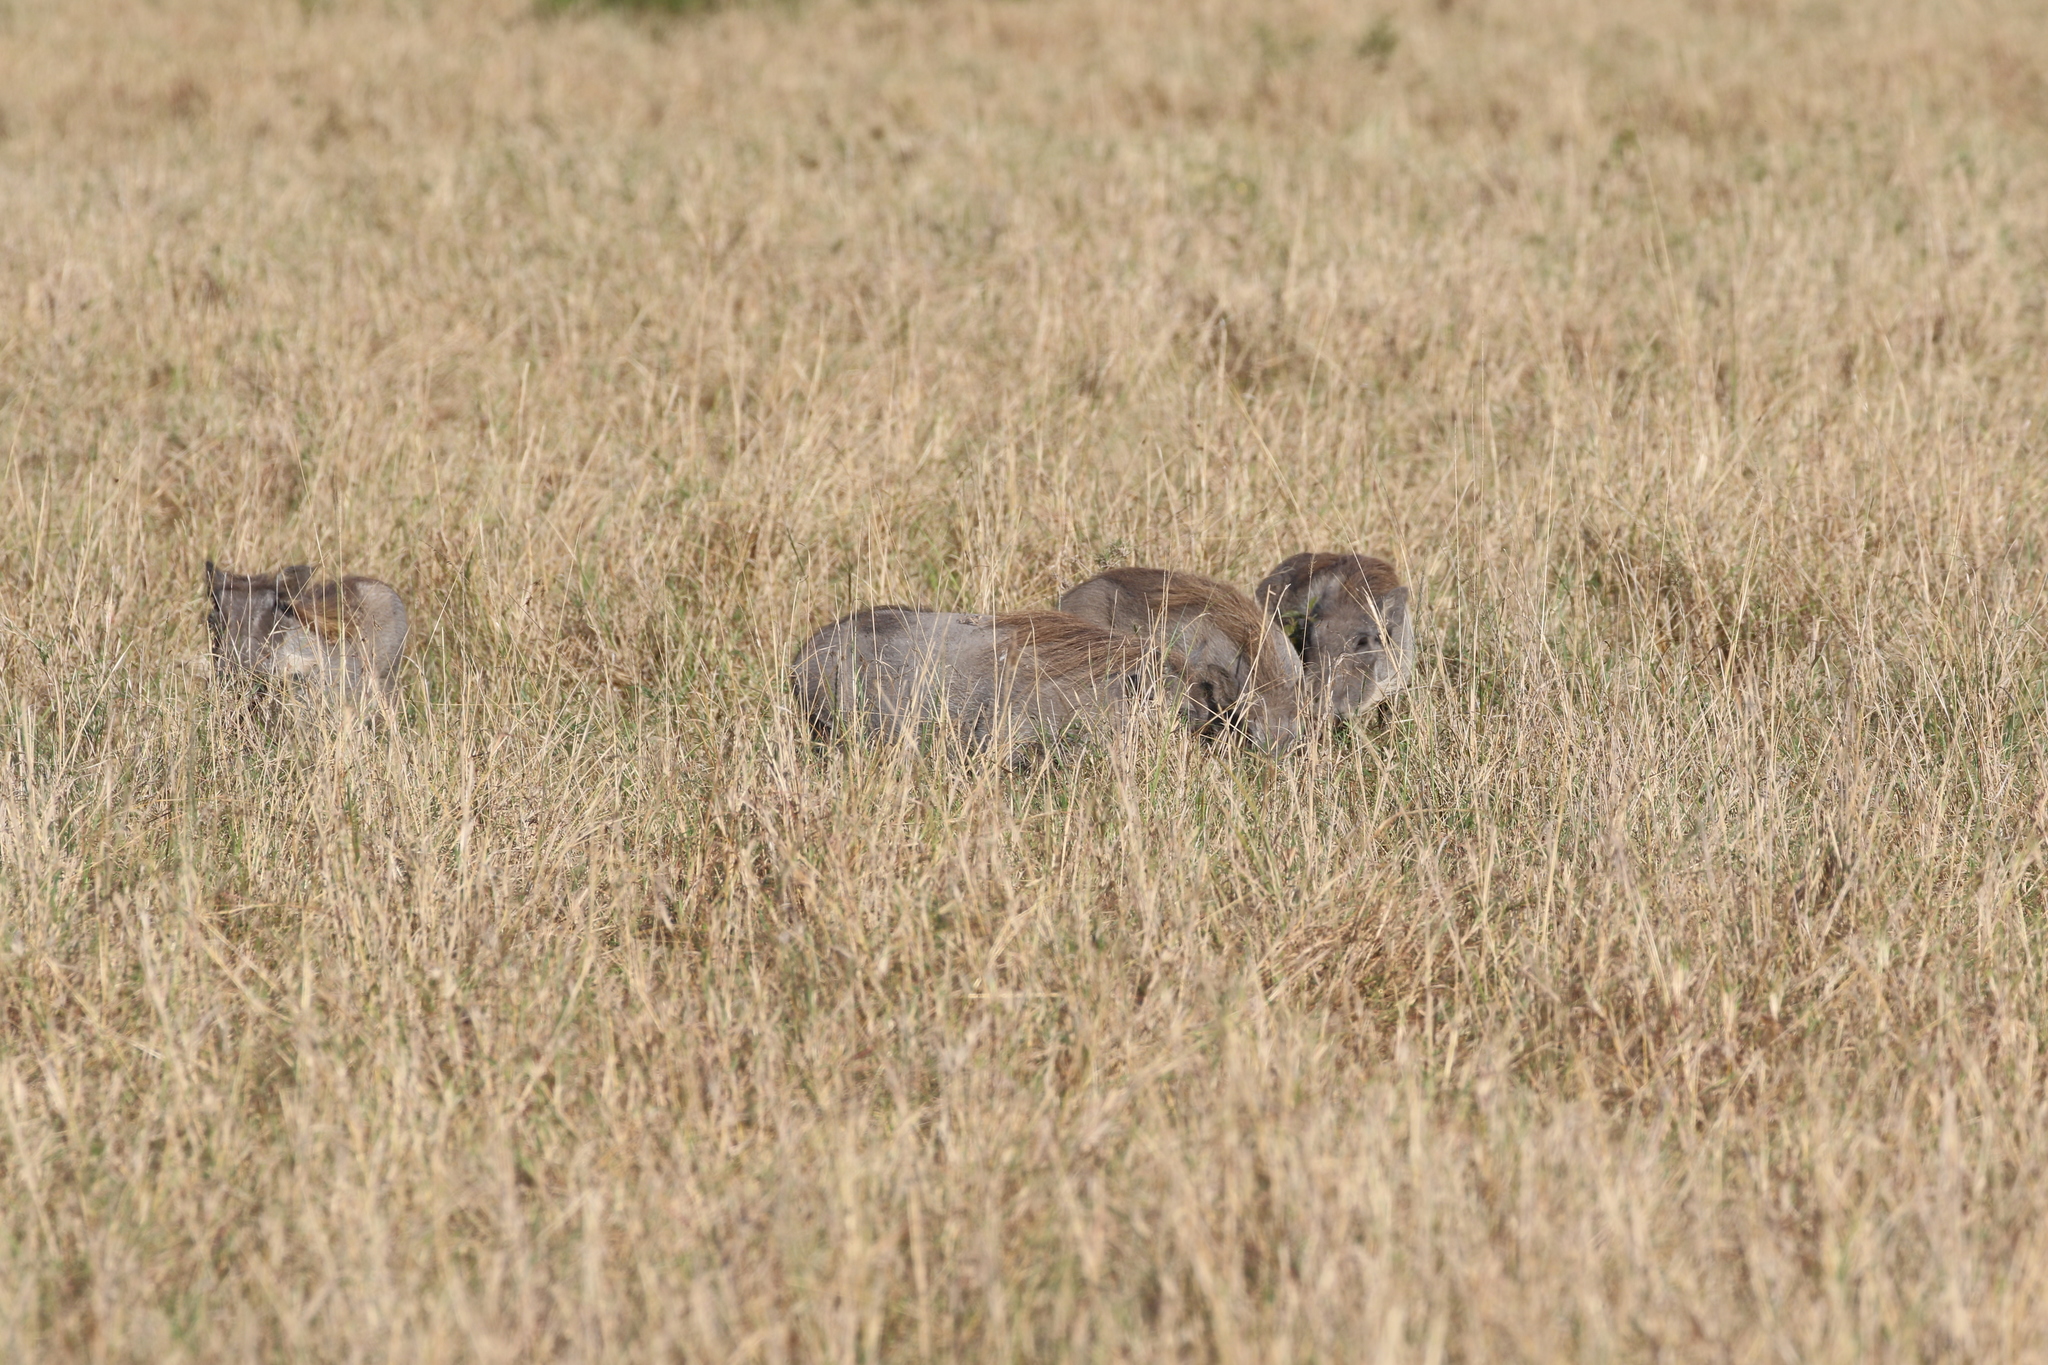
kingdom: Animalia
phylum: Chordata
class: Mammalia
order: Artiodactyla
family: Suidae
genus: Phacochoerus
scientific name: Phacochoerus africanus
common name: Common warthog
